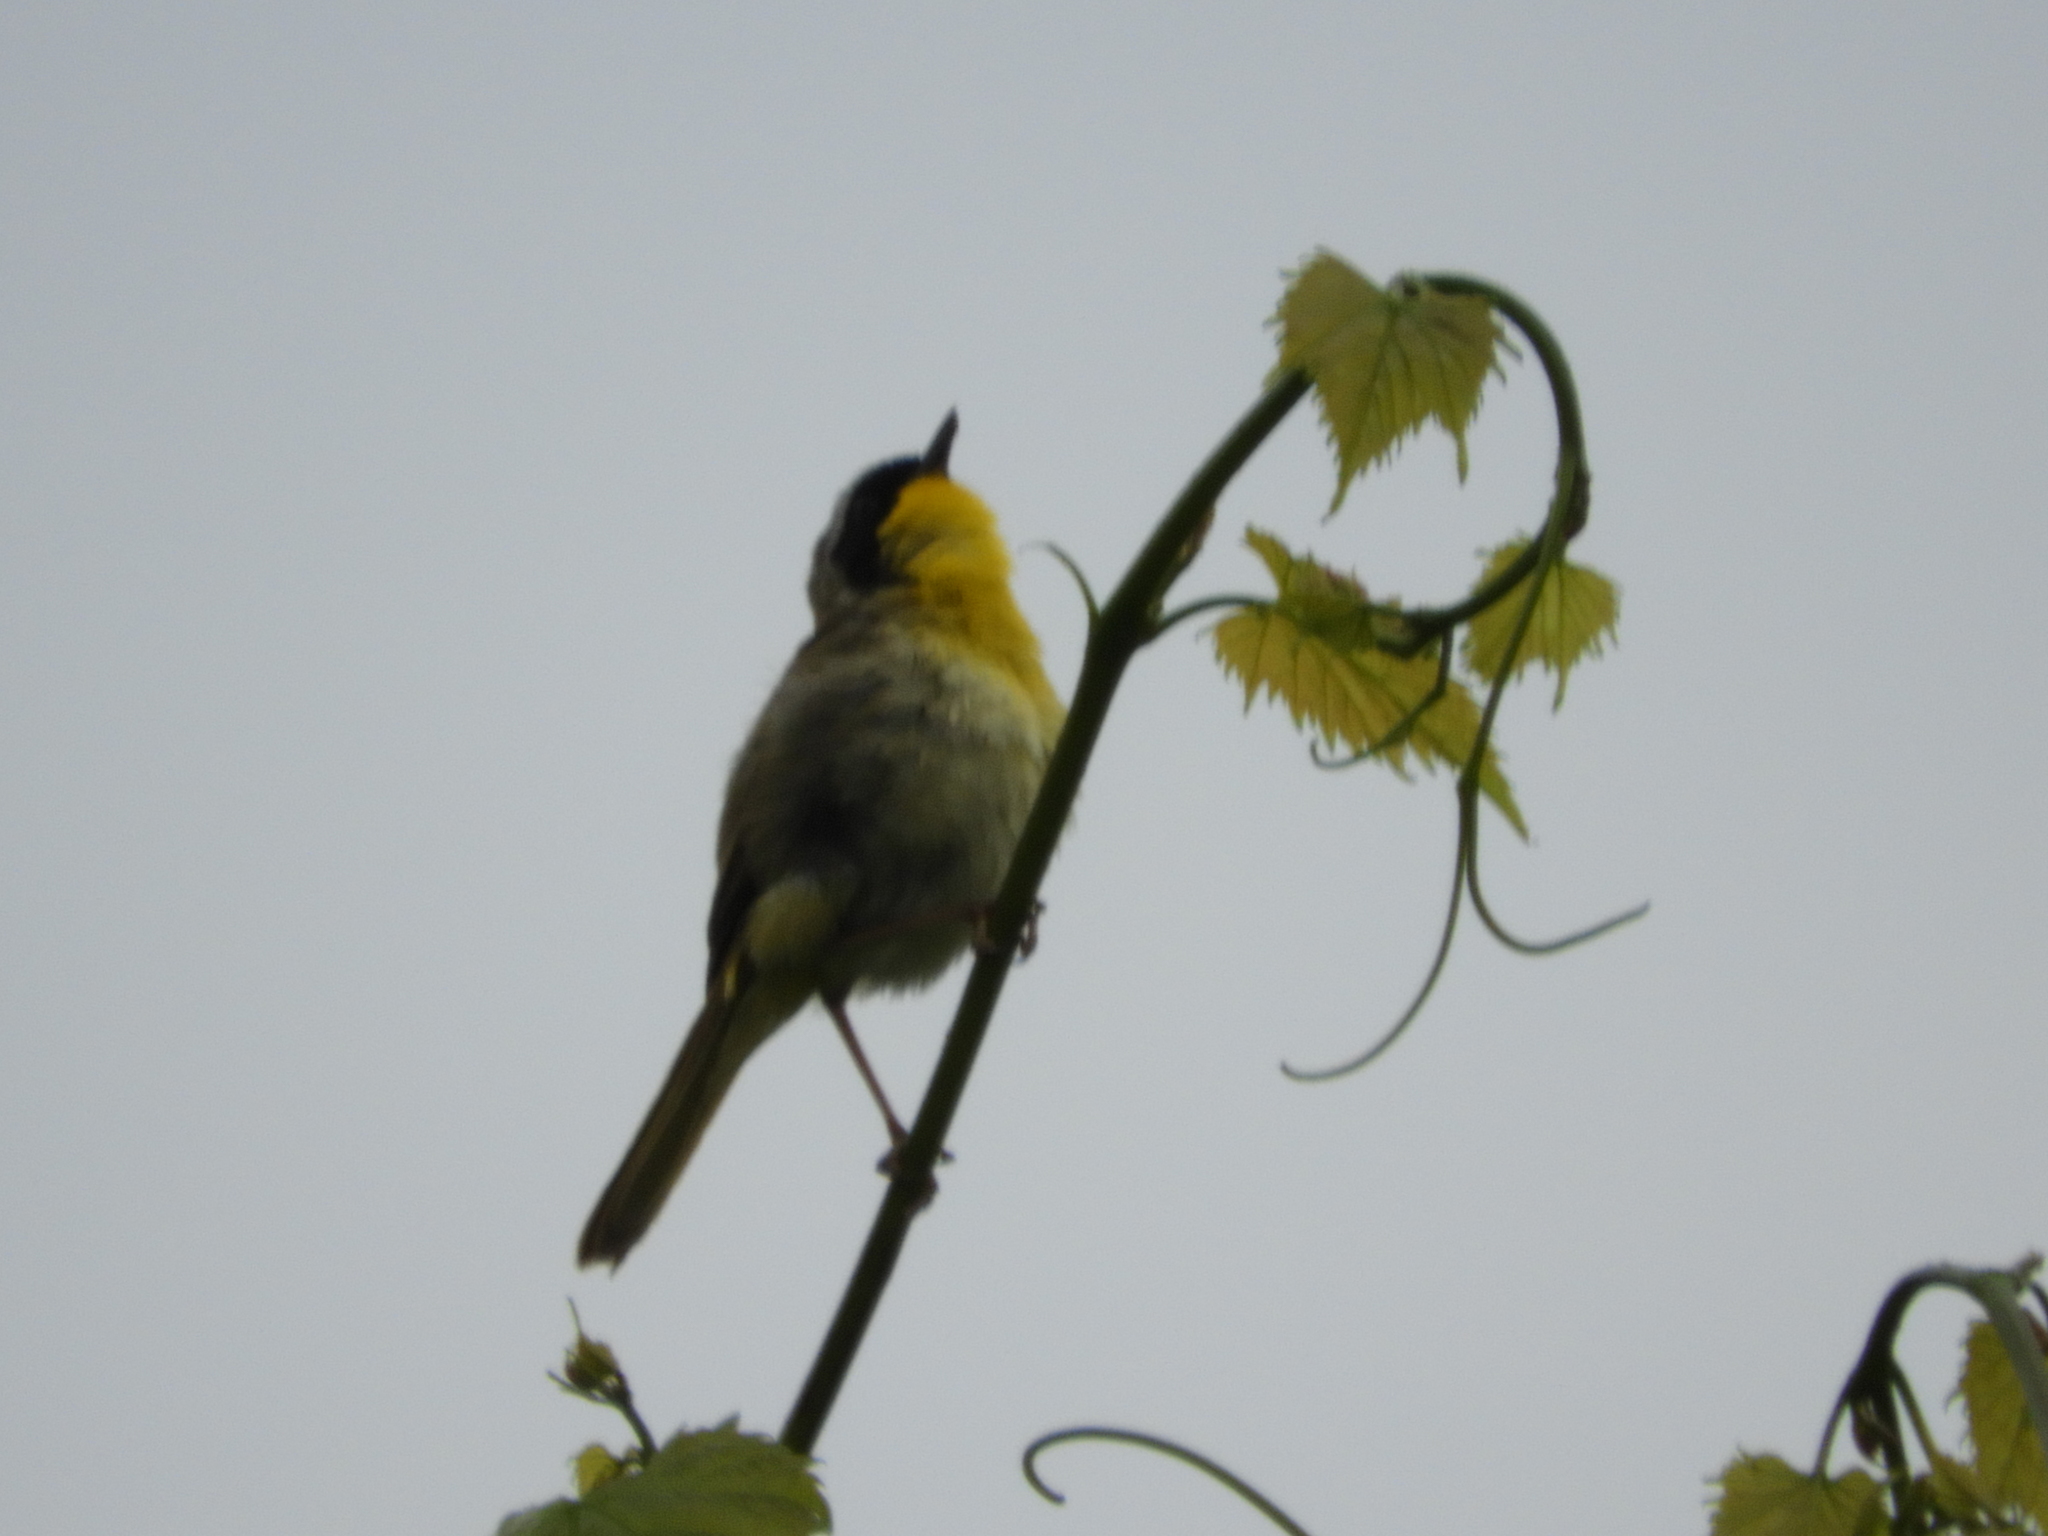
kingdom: Animalia
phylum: Chordata
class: Aves
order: Passeriformes
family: Parulidae
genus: Geothlypis
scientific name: Geothlypis trichas
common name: Common yellowthroat
